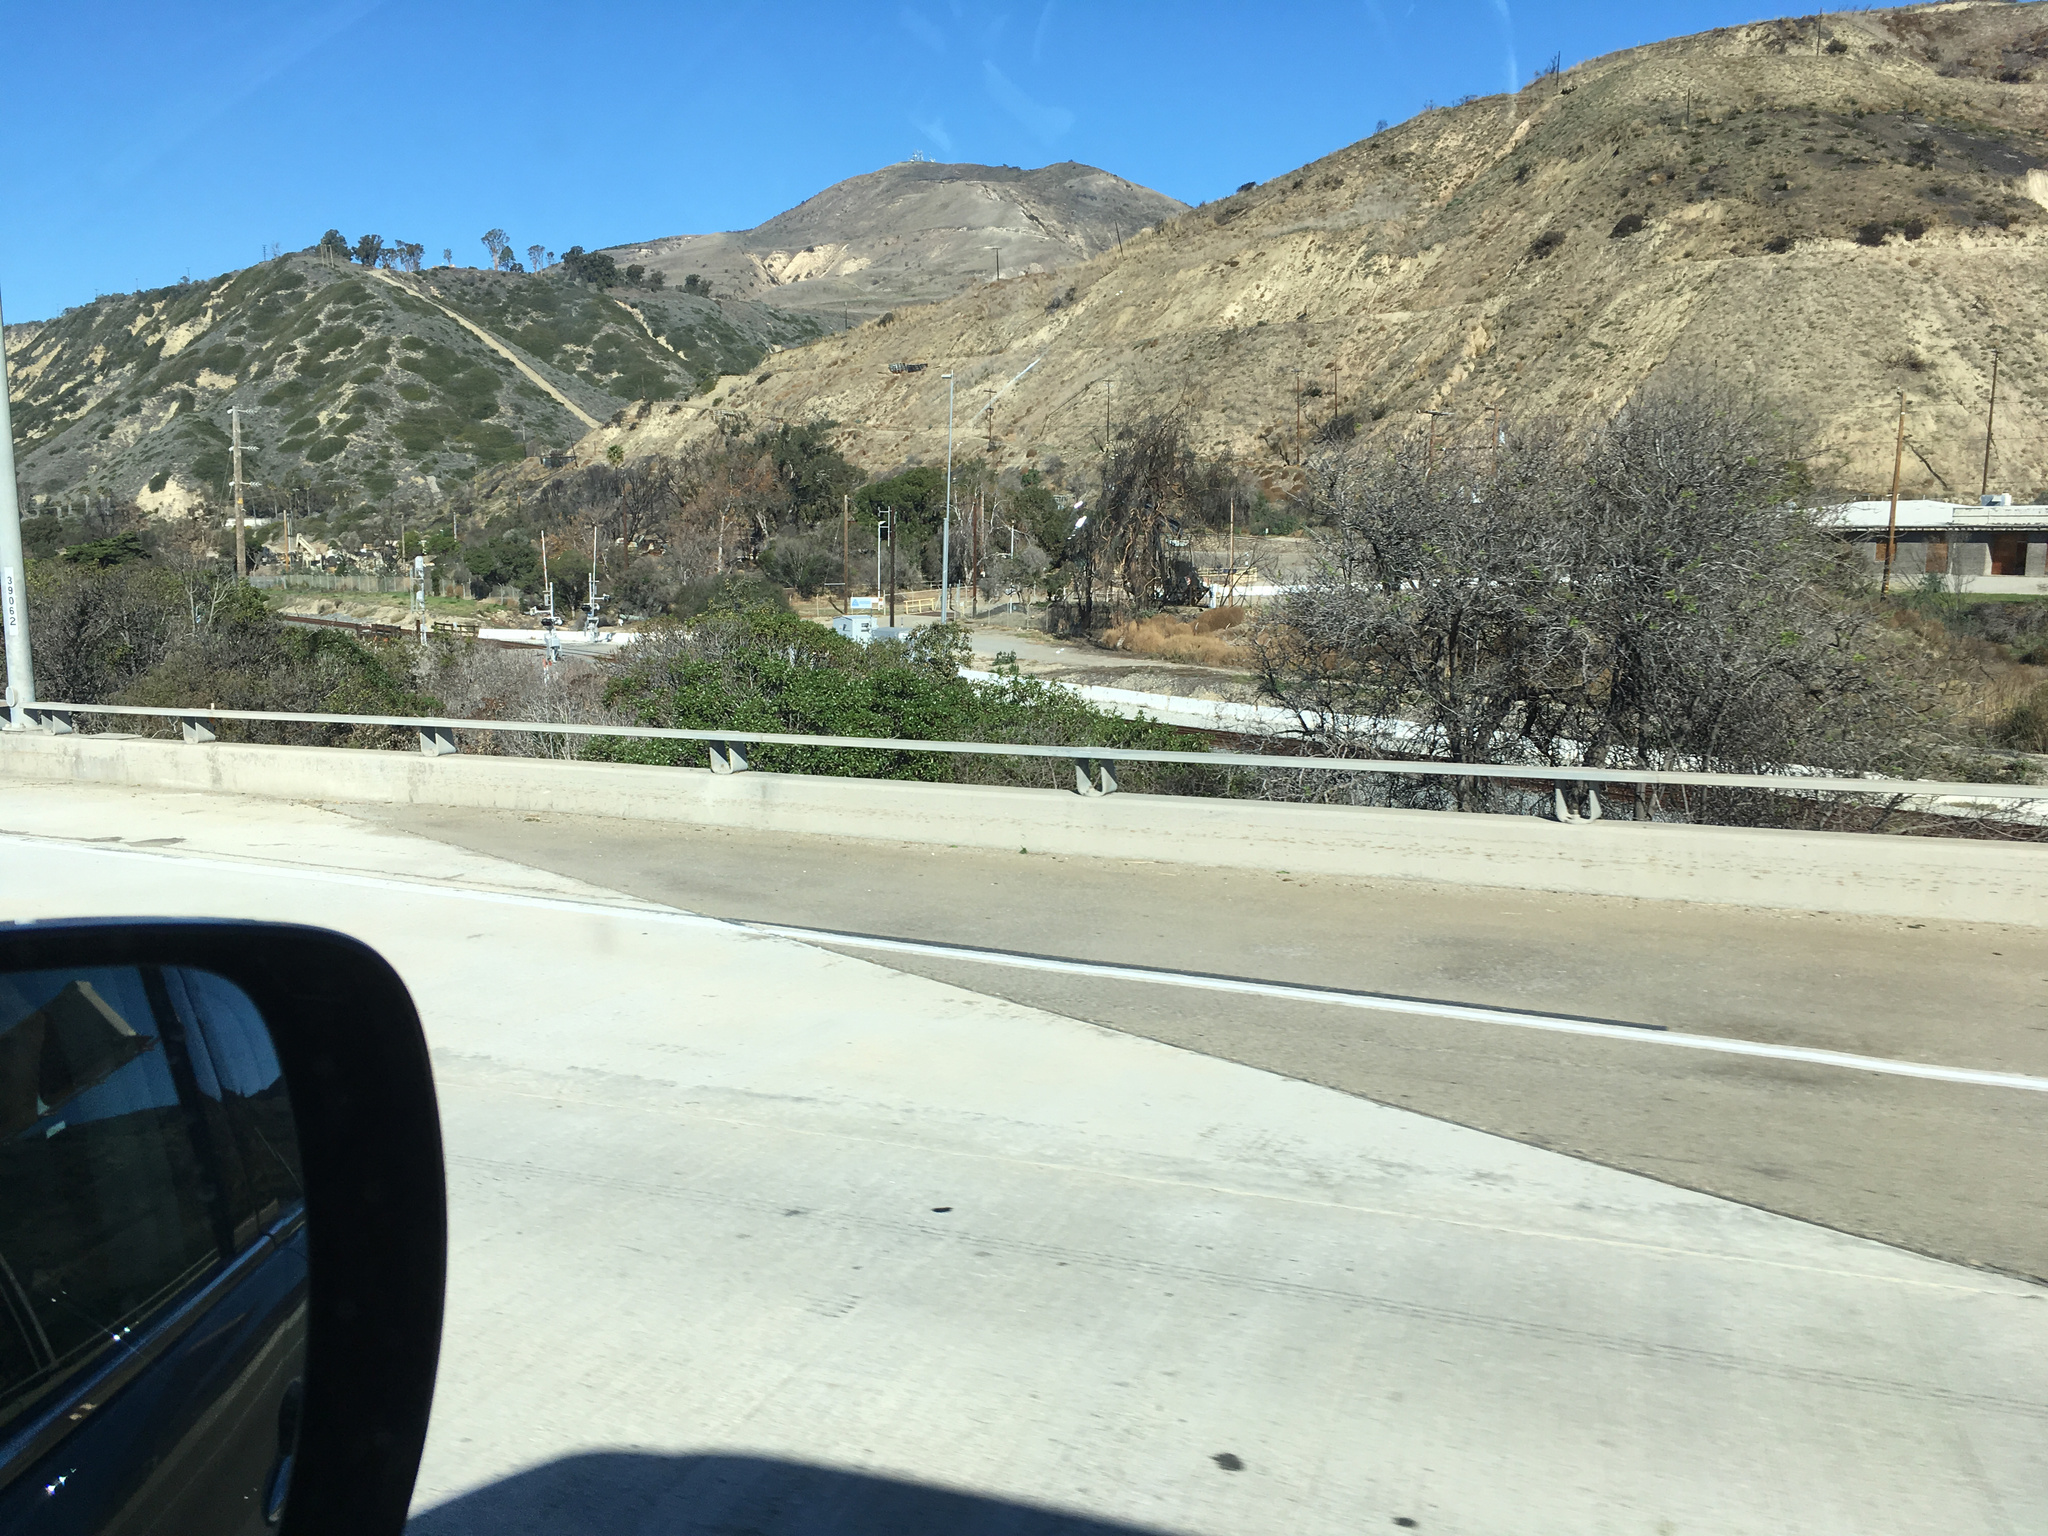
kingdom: Plantae
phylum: Tracheophyta
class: Magnoliopsida
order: Lamiales
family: Scrophulariaceae
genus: Myoporum
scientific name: Myoporum laetum
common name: Ngaio tree
